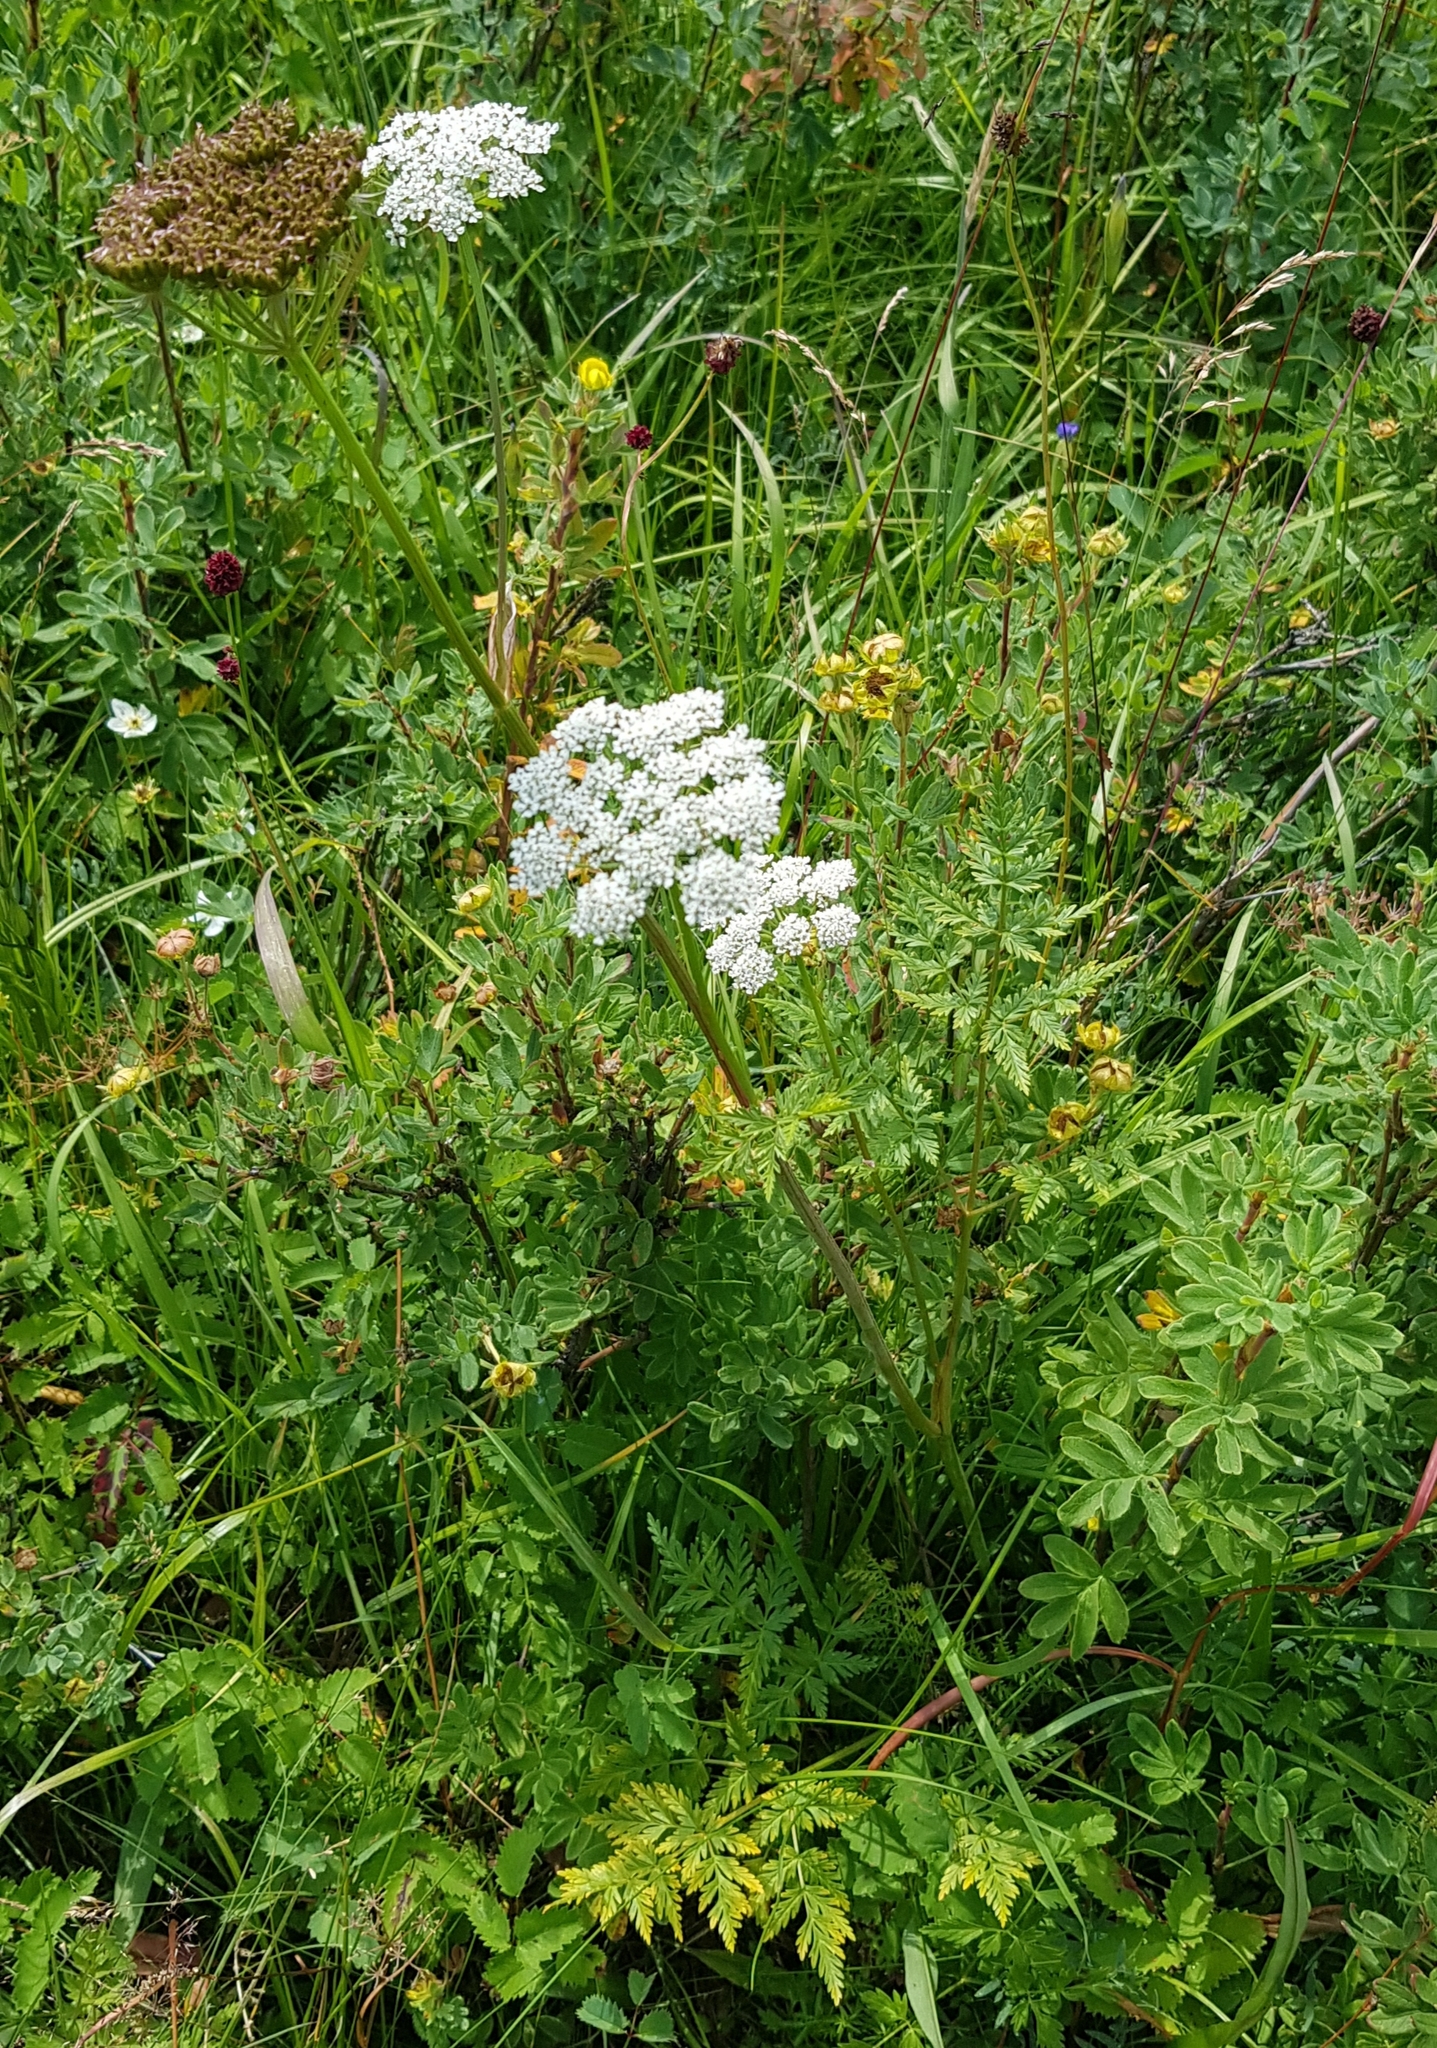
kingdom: Plantae
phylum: Tracheophyta
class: Magnoliopsida
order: Apiales
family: Apiaceae
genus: Conioselinum
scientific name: Conioselinum tataricum
